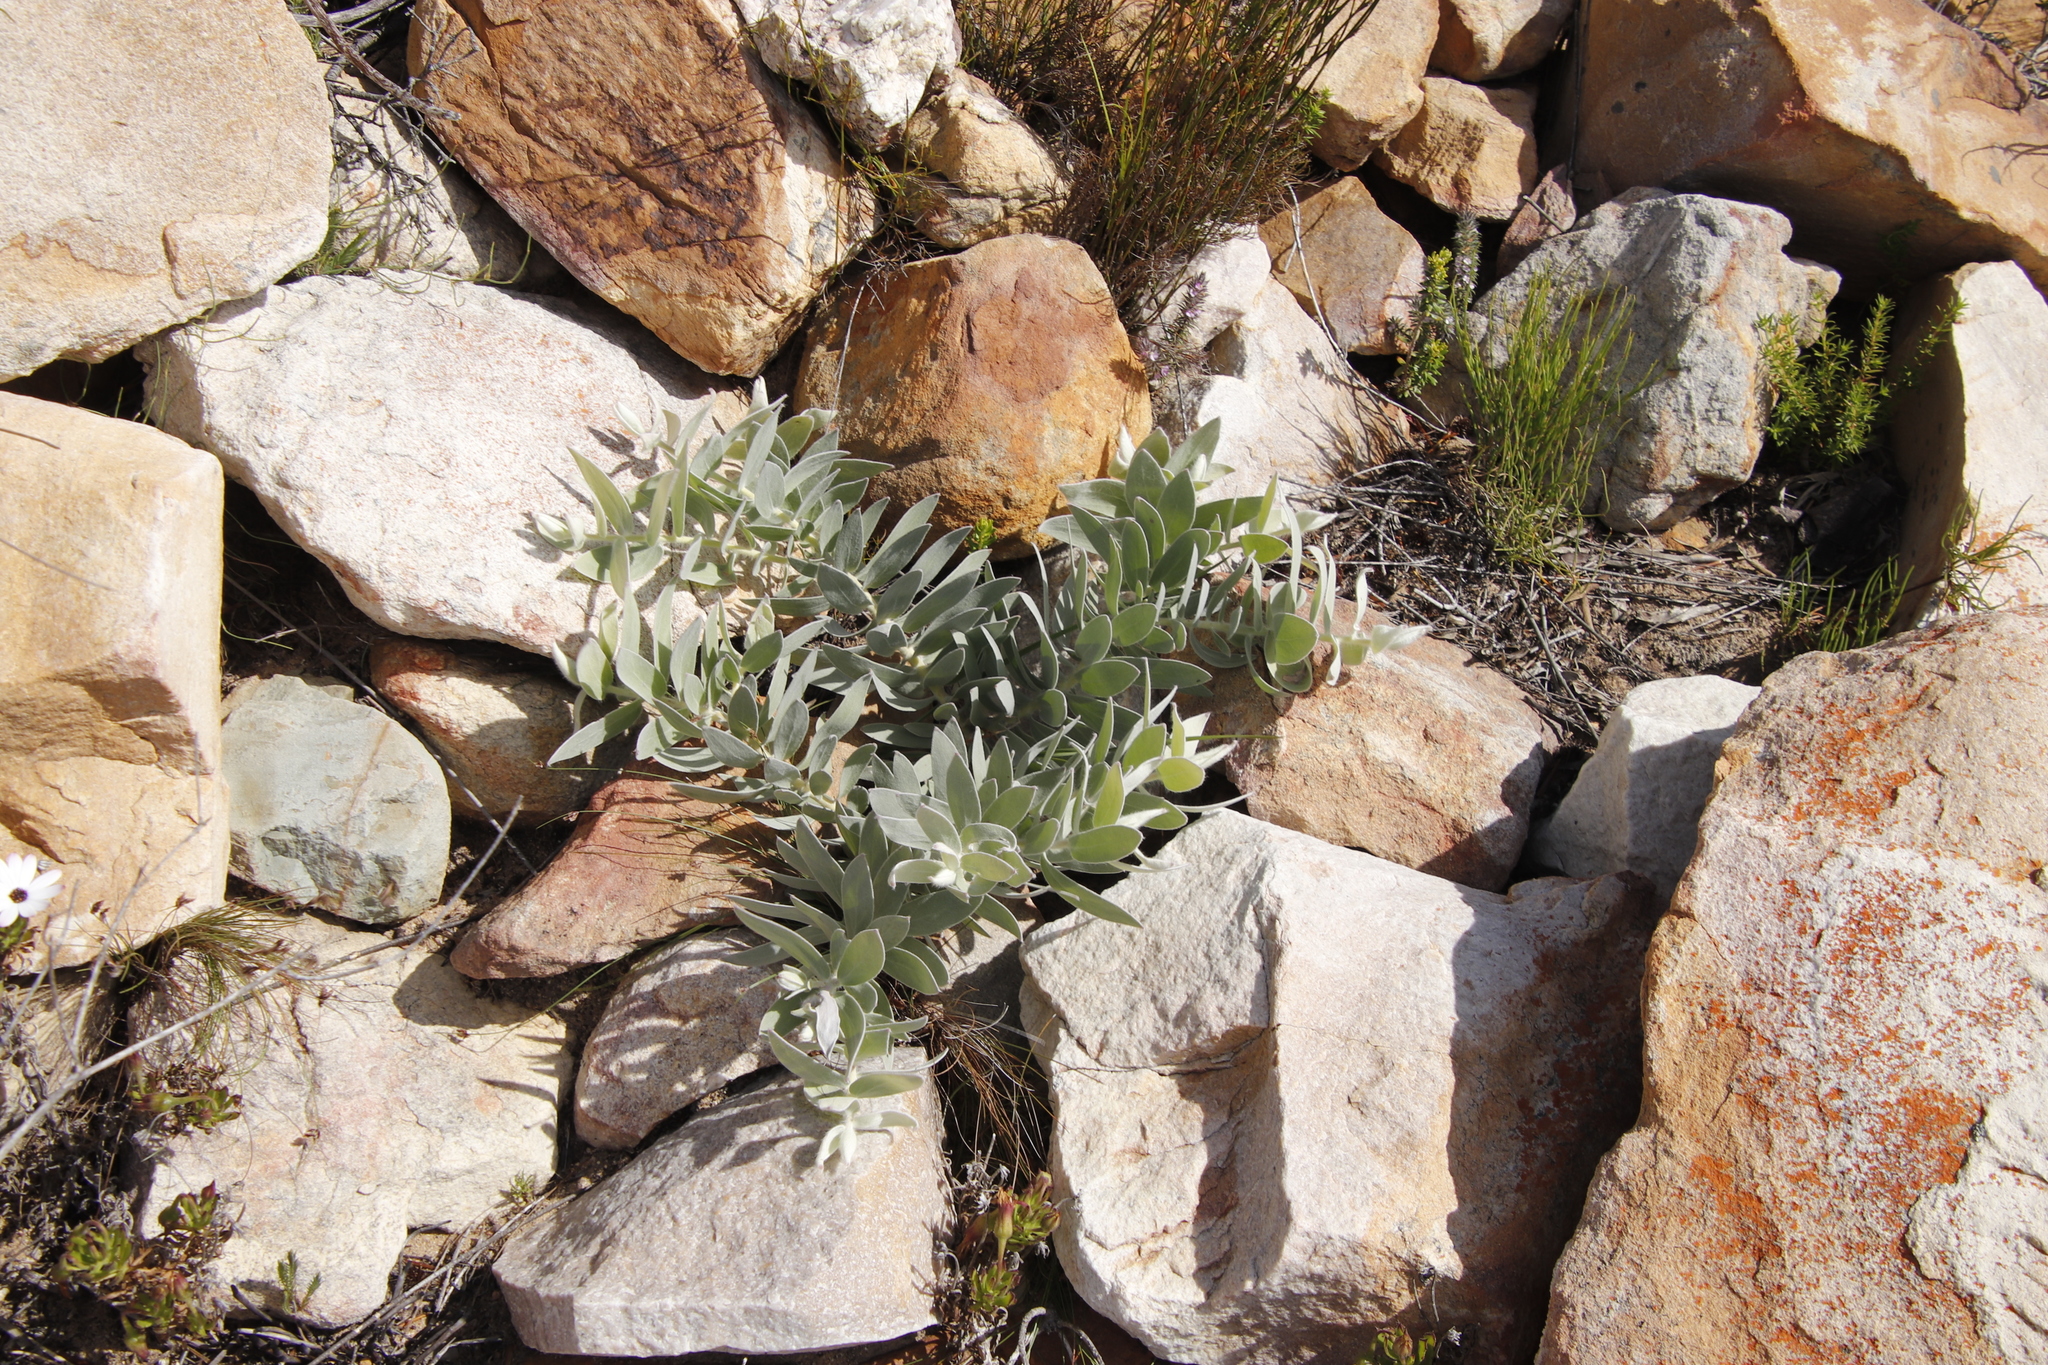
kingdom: Plantae
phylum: Tracheophyta
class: Magnoliopsida
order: Proteales
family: Proteaceae
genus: Leucospermum
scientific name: Leucospermum cordatum
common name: Heart-leaf pincushion
